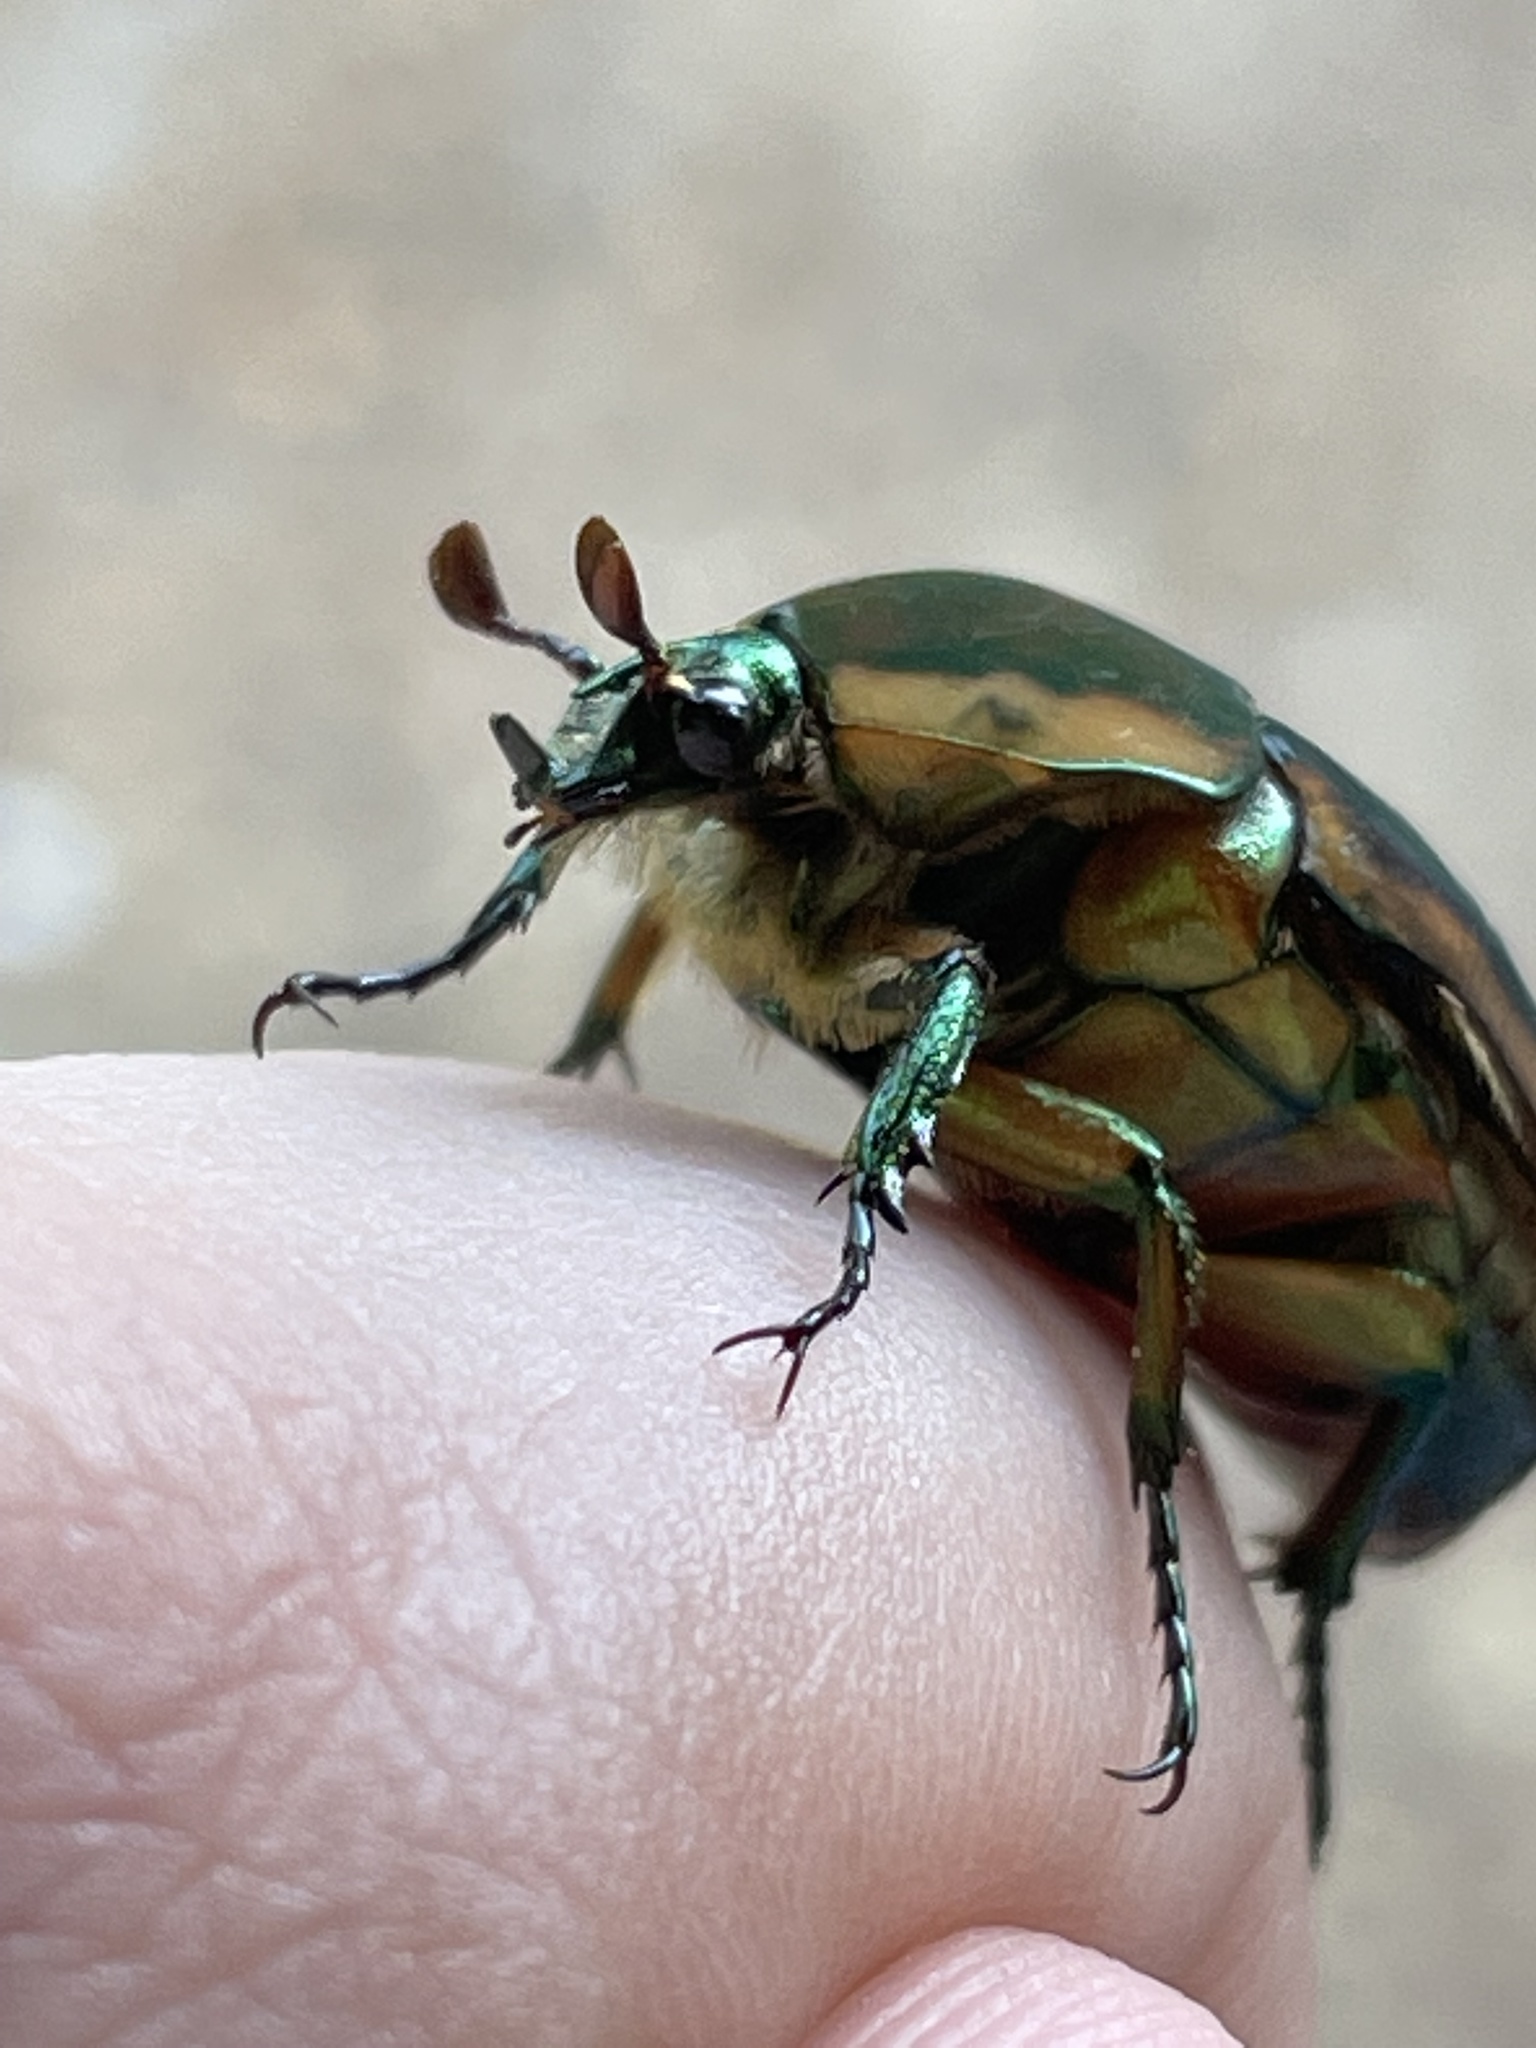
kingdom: Animalia
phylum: Arthropoda
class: Insecta
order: Coleoptera
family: Scarabaeidae
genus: Cotinis
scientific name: Cotinis nitida
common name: Common green june beetle
